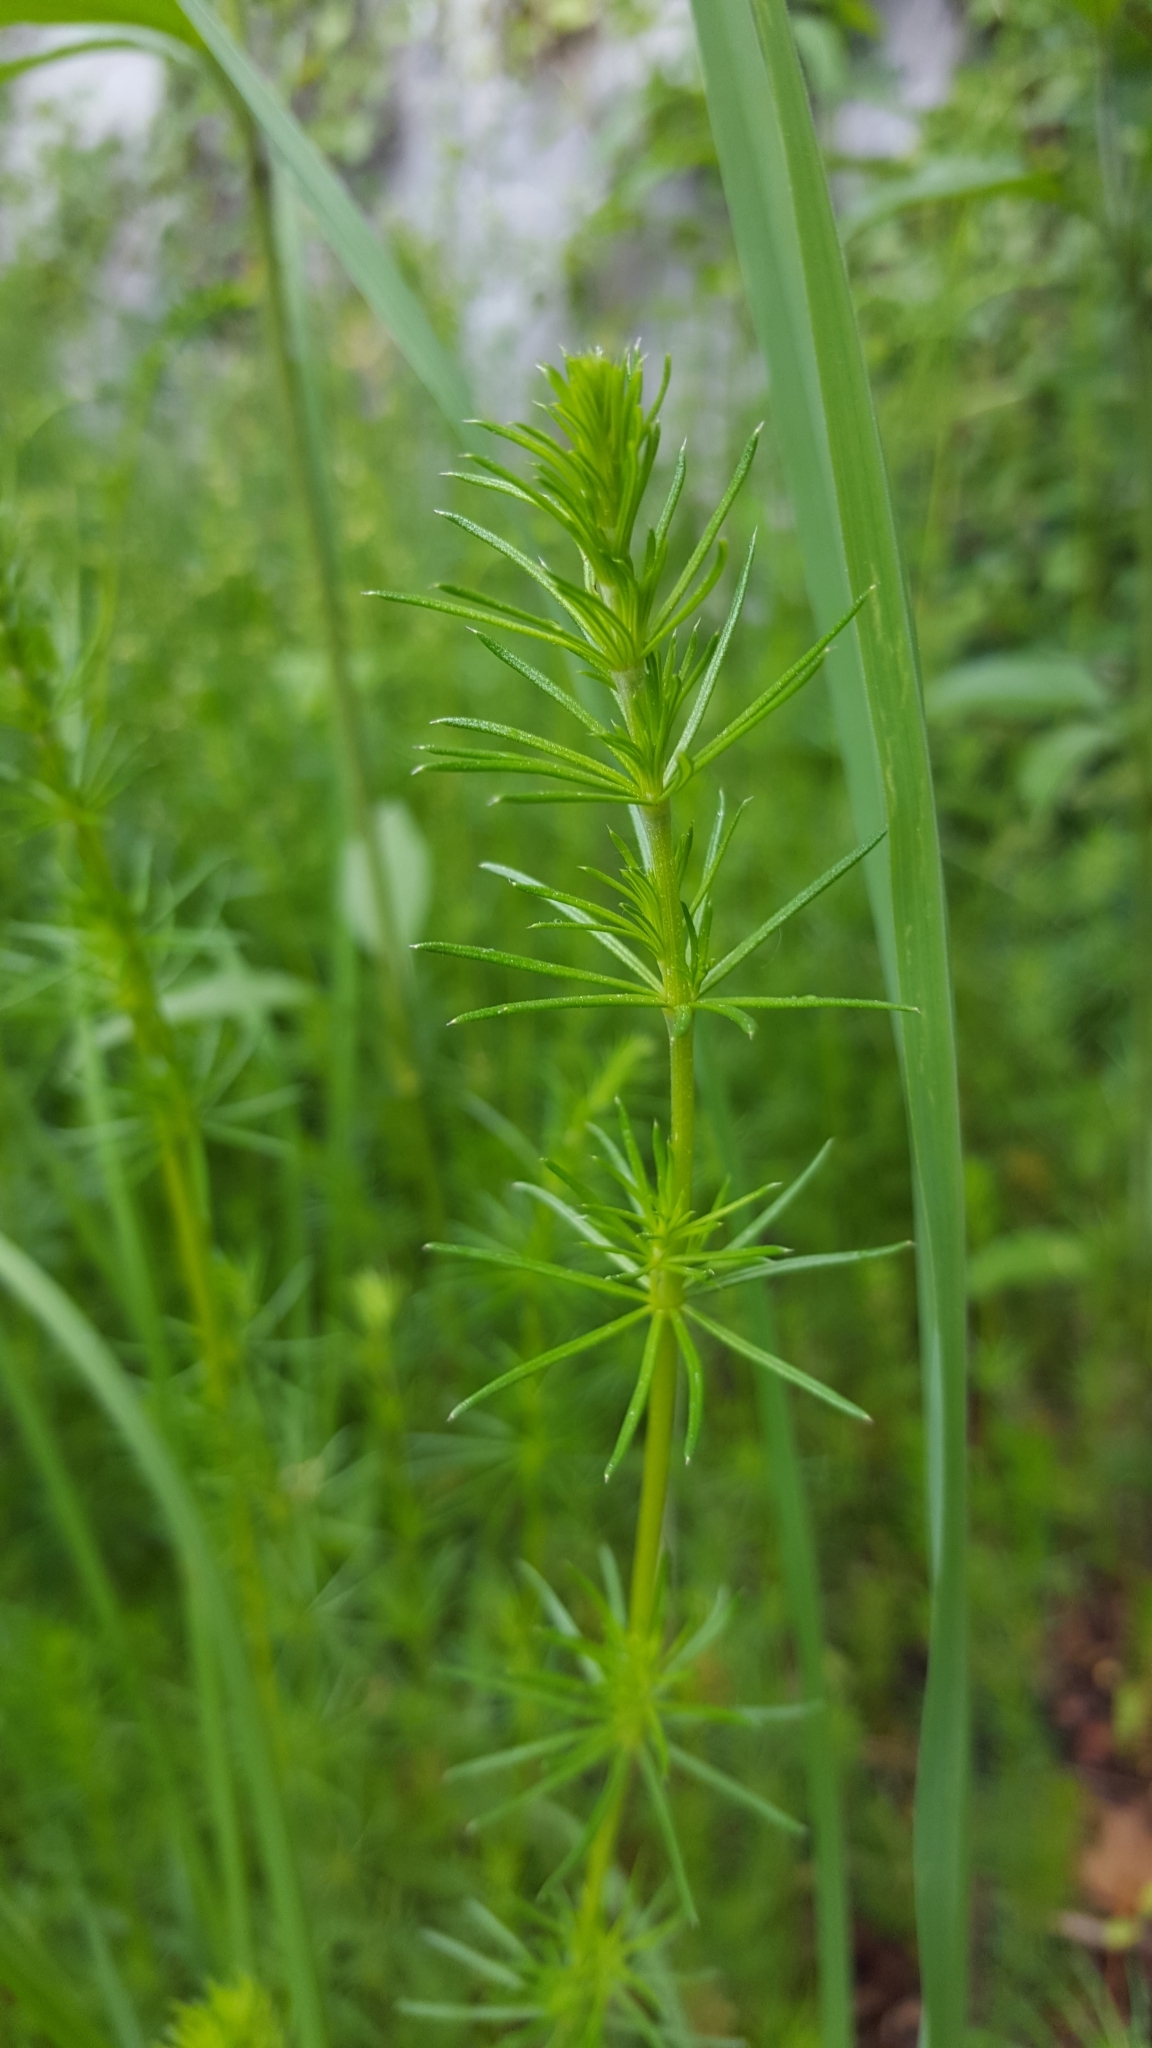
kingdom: Plantae
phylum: Tracheophyta
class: Magnoliopsida
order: Gentianales
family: Rubiaceae
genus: Galium
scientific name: Galium verum
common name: Lady's bedstraw
